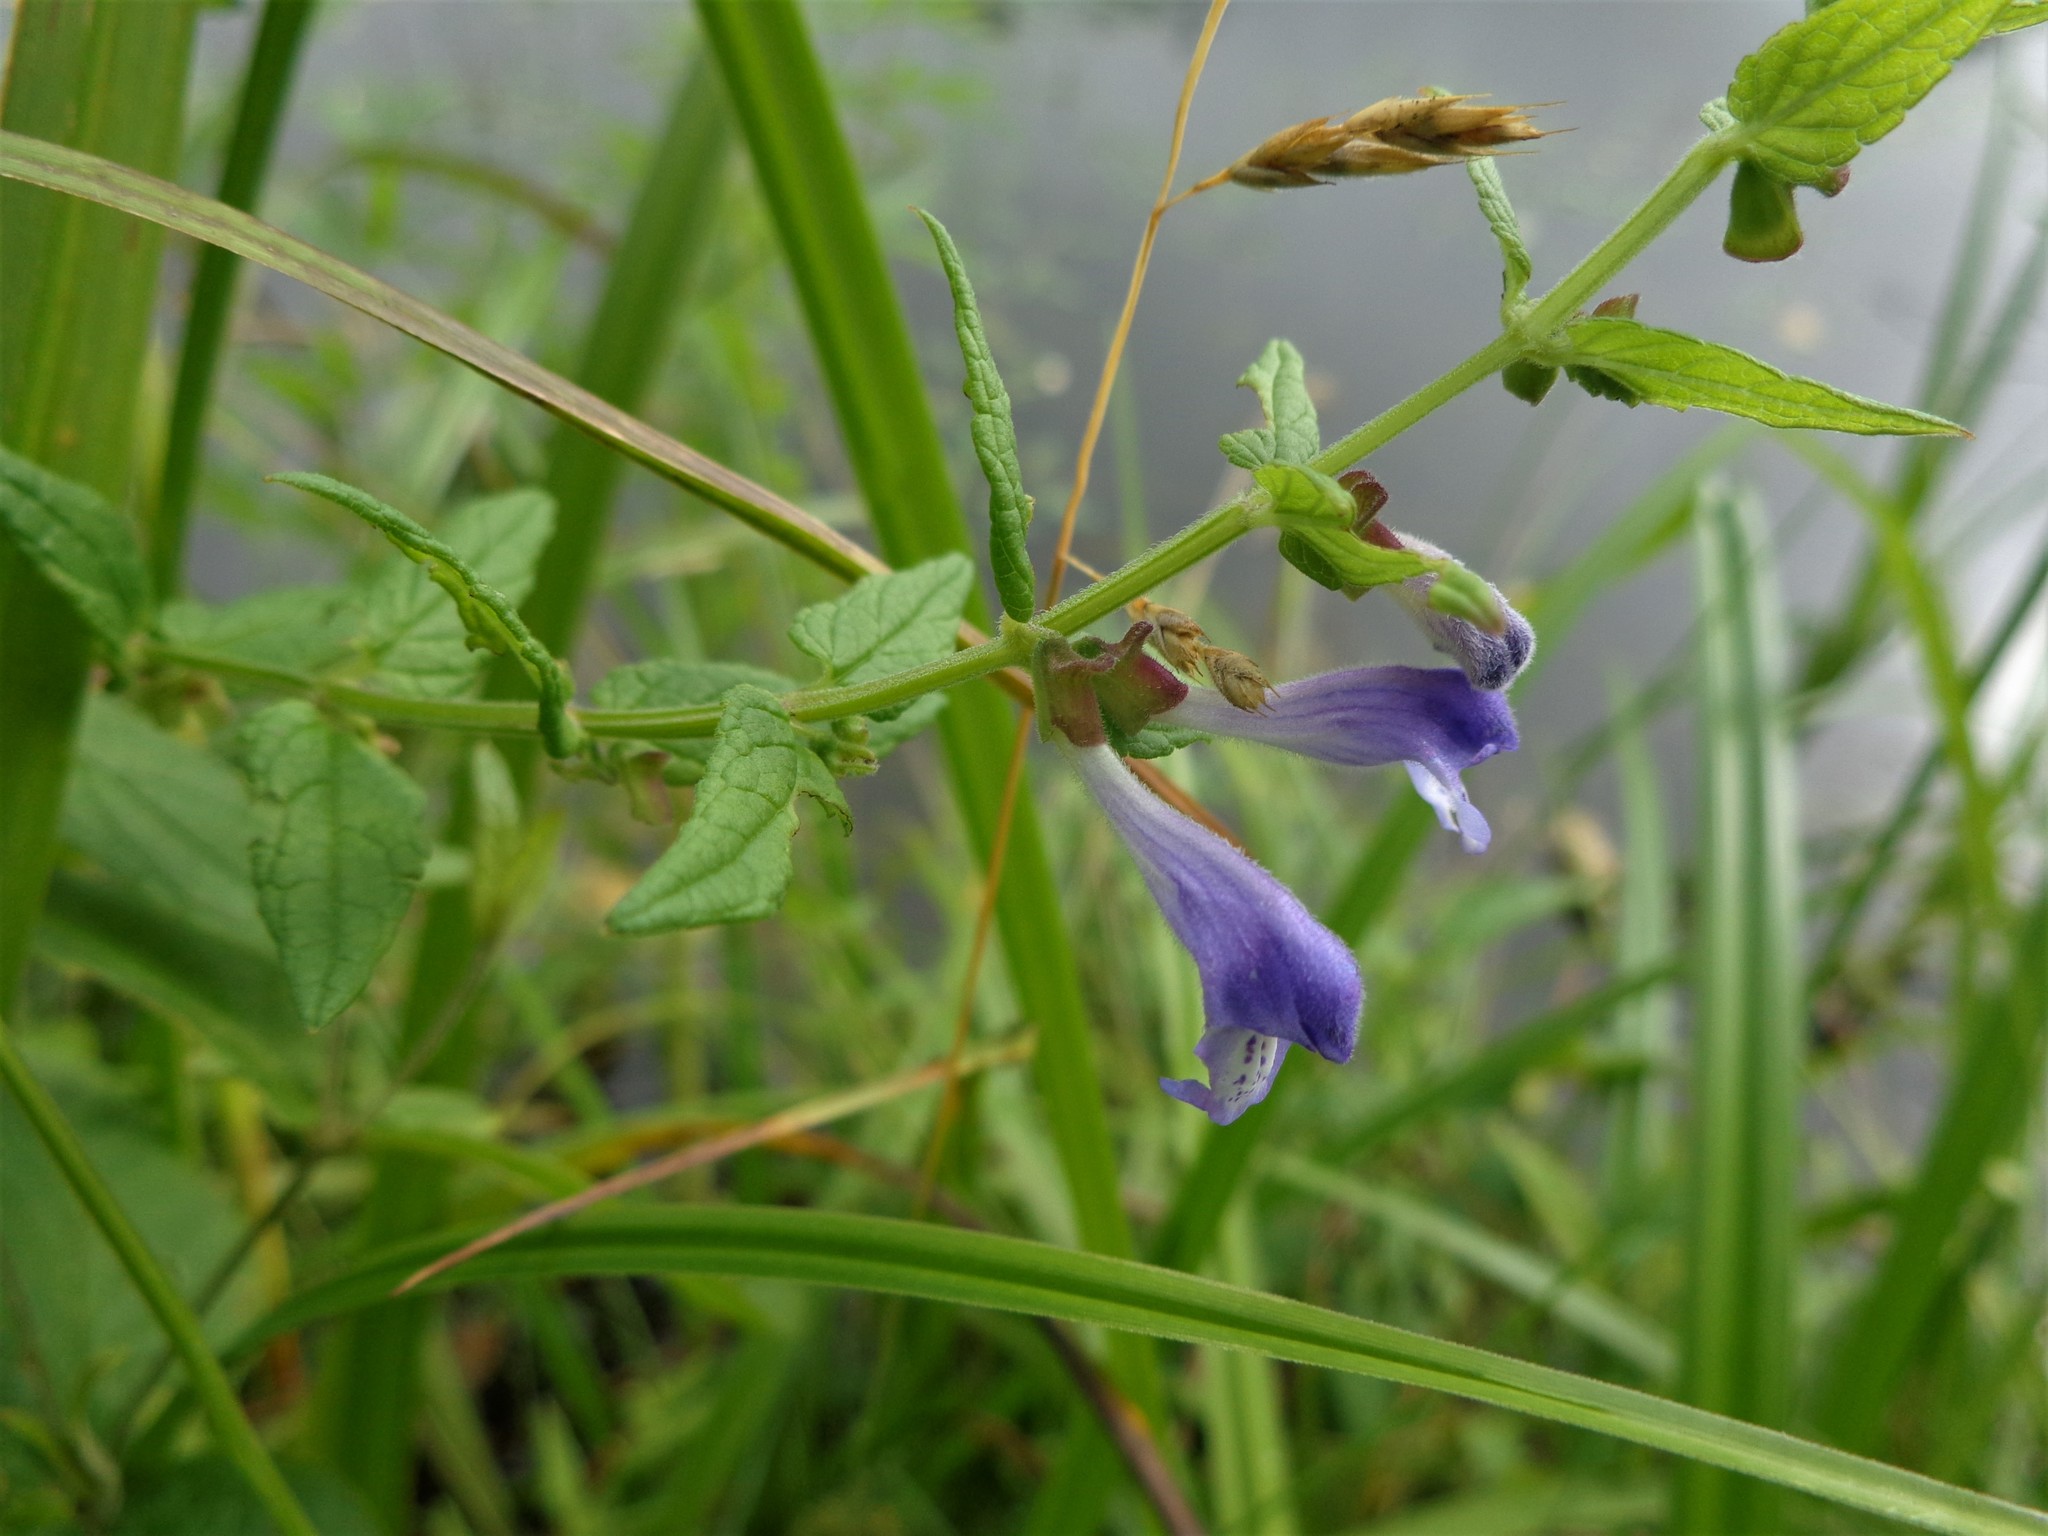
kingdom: Plantae
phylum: Tracheophyta
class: Magnoliopsida
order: Lamiales
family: Lamiaceae
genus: Scutellaria
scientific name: Scutellaria galericulata
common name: Skullcap
